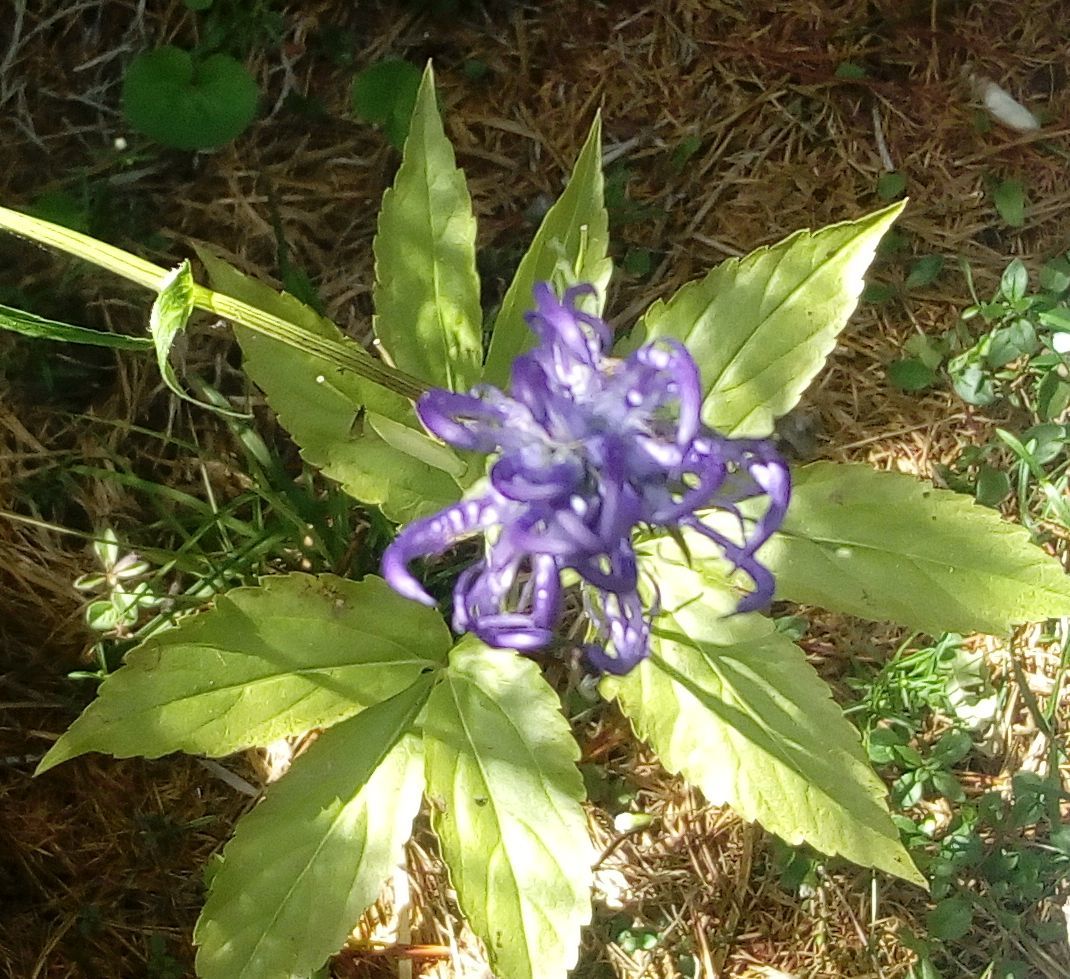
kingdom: Plantae
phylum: Tracheophyta
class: Magnoliopsida
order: Asterales
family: Campanulaceae
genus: Phyteuma
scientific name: Phyteuma orbiculare
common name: Round-headed rampion
